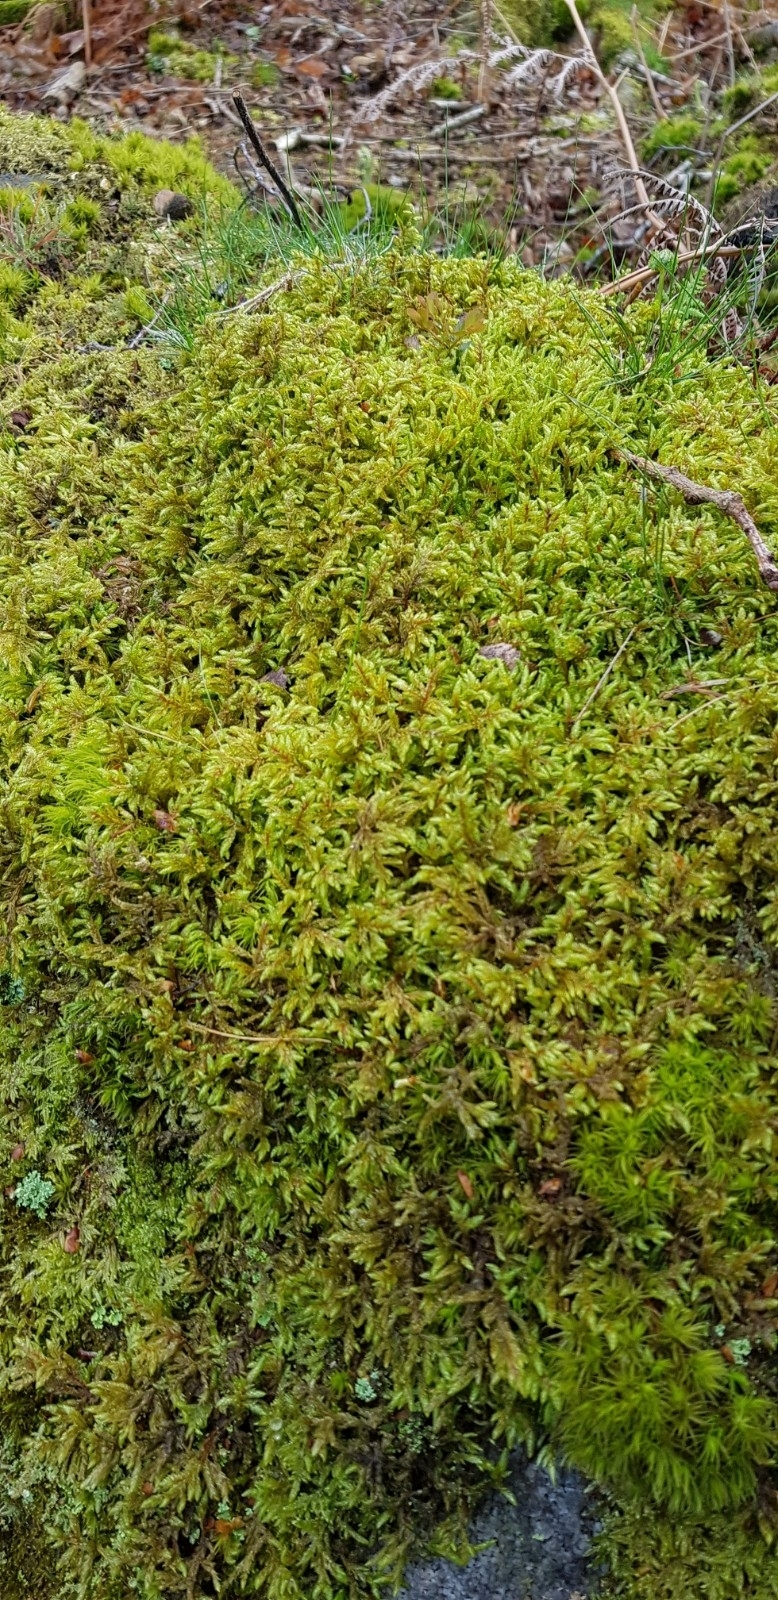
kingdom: Plantae
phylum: Bryophyta
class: Bryopsida
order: Hypnales
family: Hylocomiaceae
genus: Pleurozium
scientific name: Pleurozium schreberi
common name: Red-stemmed feather moss
